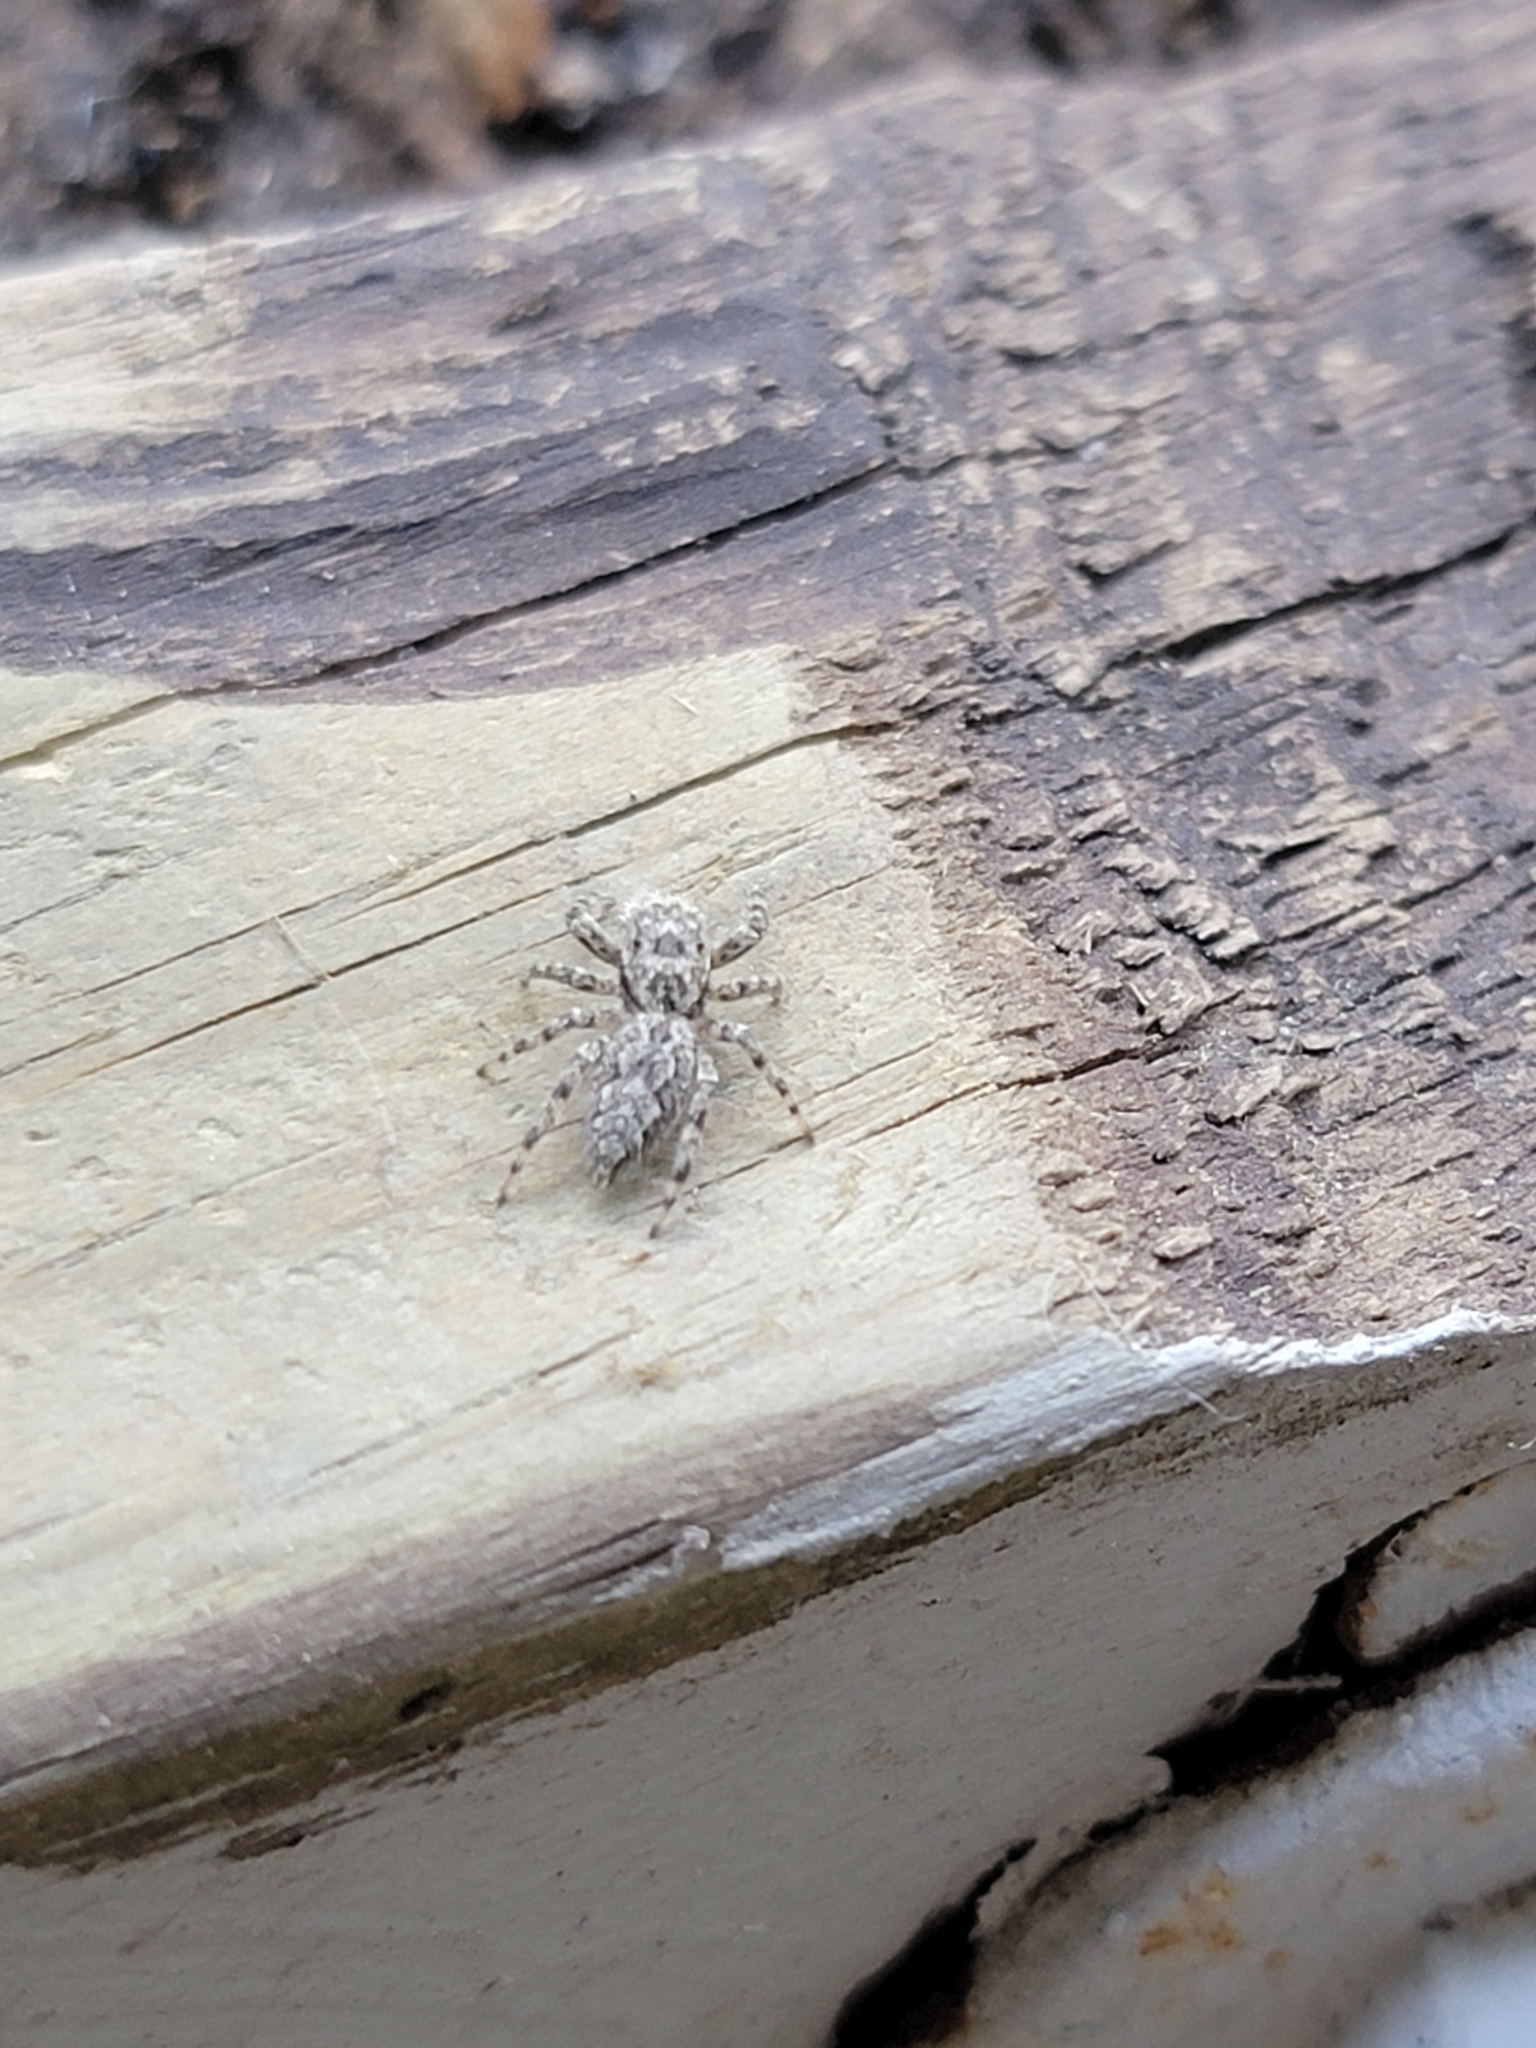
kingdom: Animalia
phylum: Arthropoda
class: Arachnida
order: Araneae
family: Salticidae
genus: Platycryptus
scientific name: Platycryptus undatus
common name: Tan jumping spider
